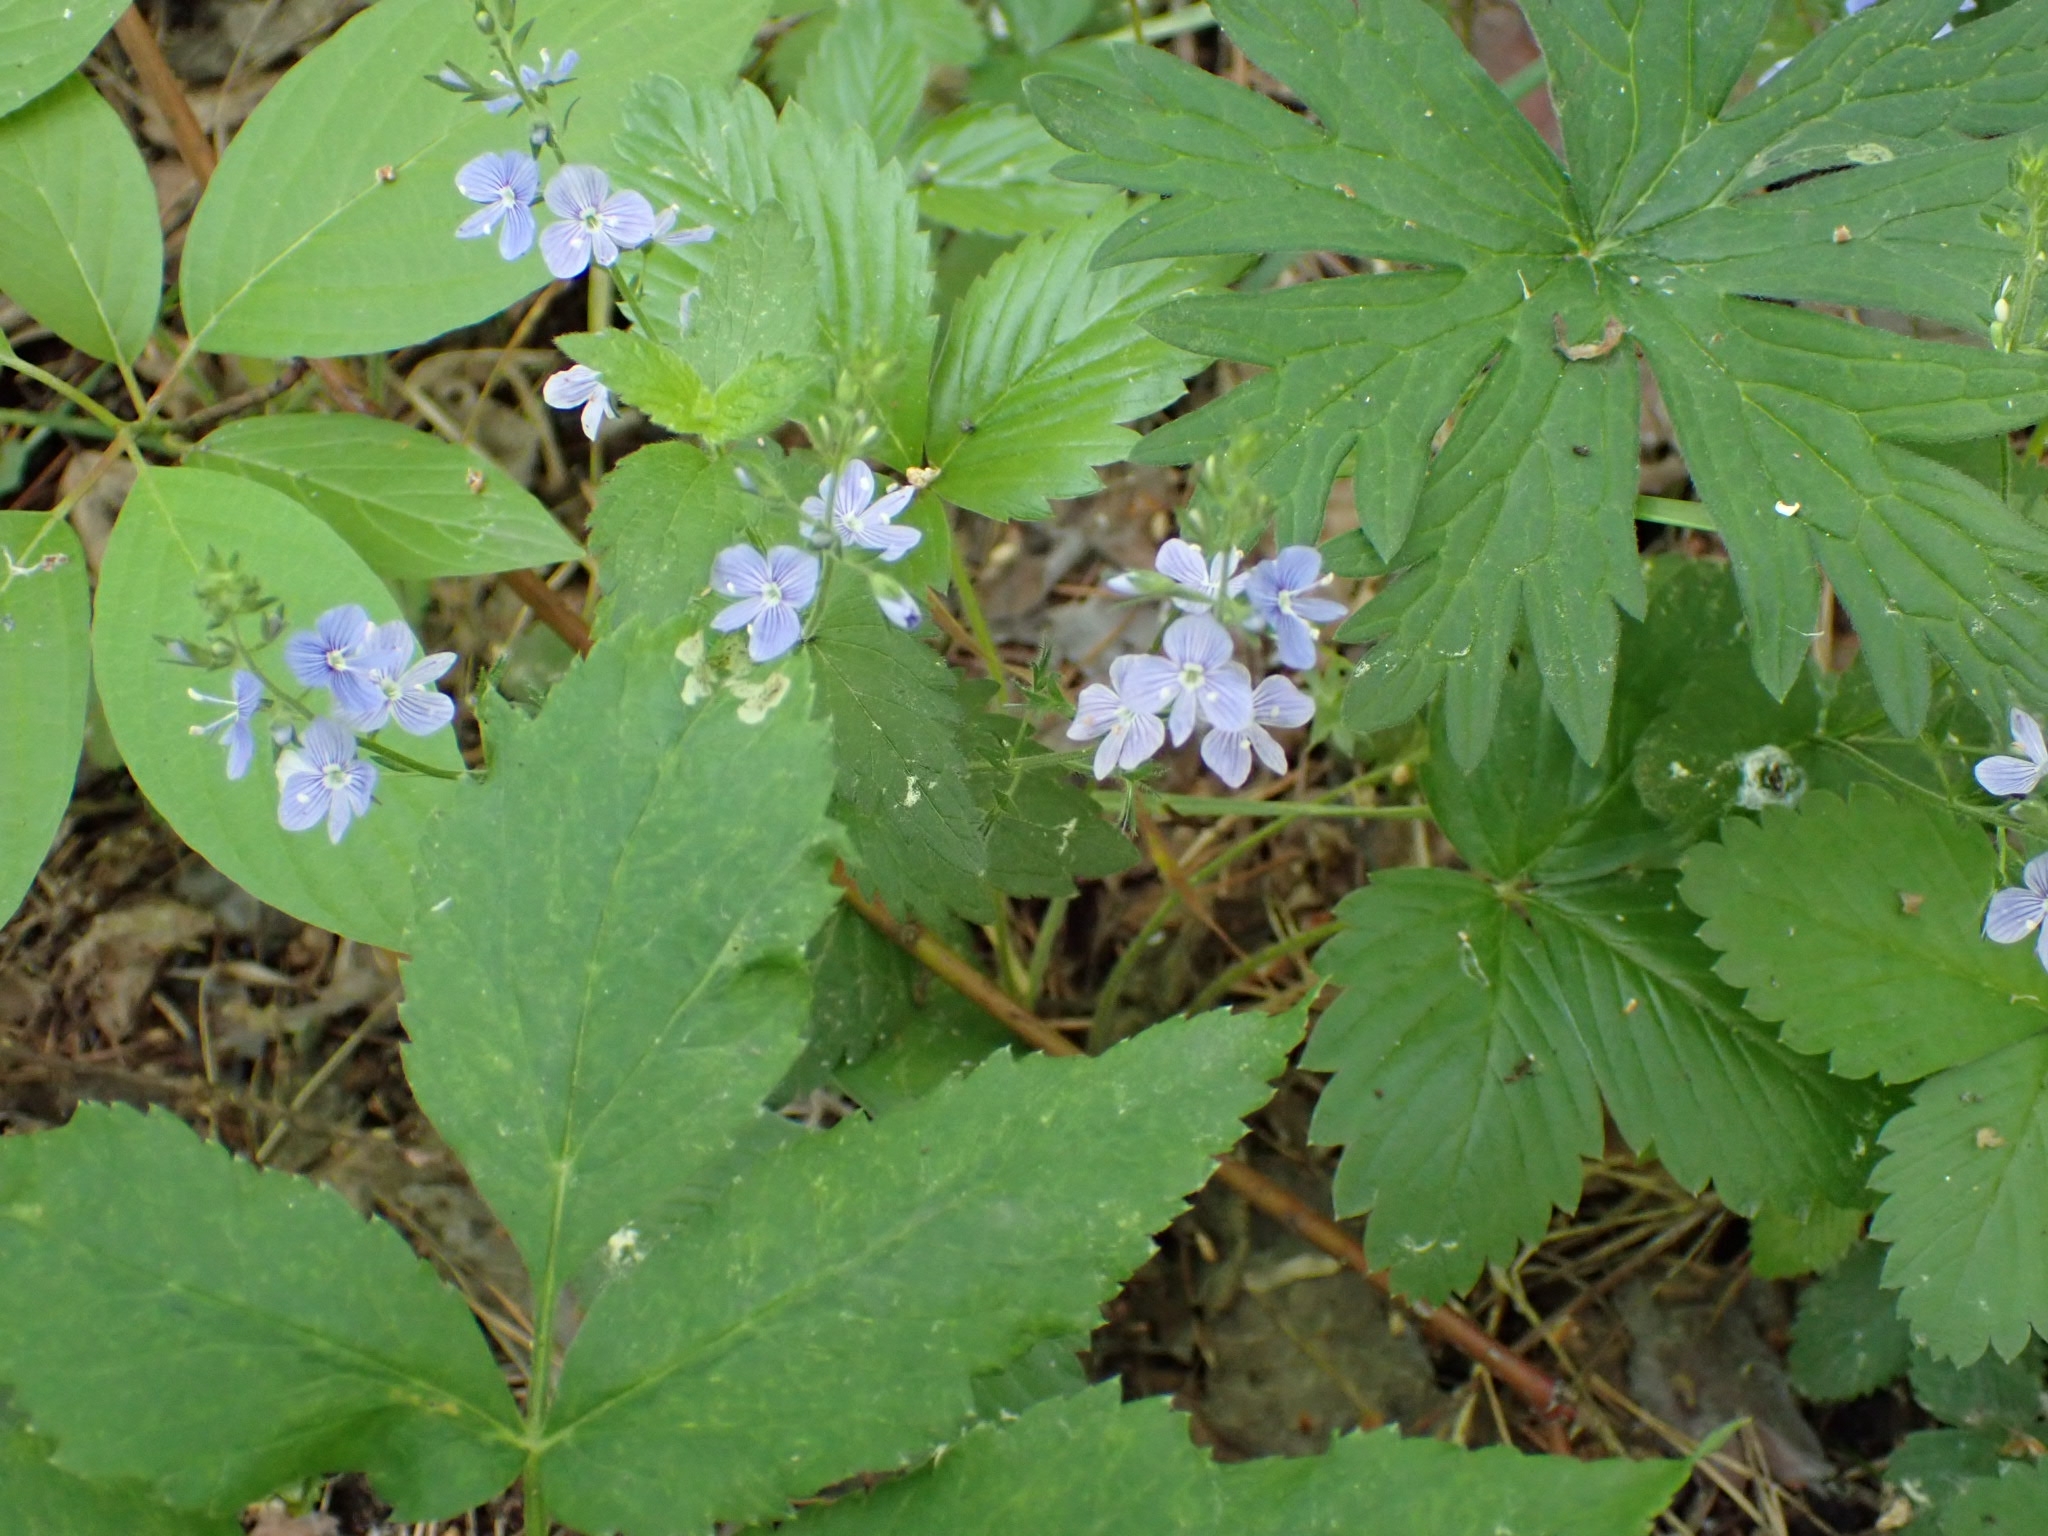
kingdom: Plantae
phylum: Tracheophyta
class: Magnoliopsida
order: Lamiales
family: Plantaginaceae
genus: Veronica
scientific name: Veronica chamaedrys
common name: Germander speedwell
